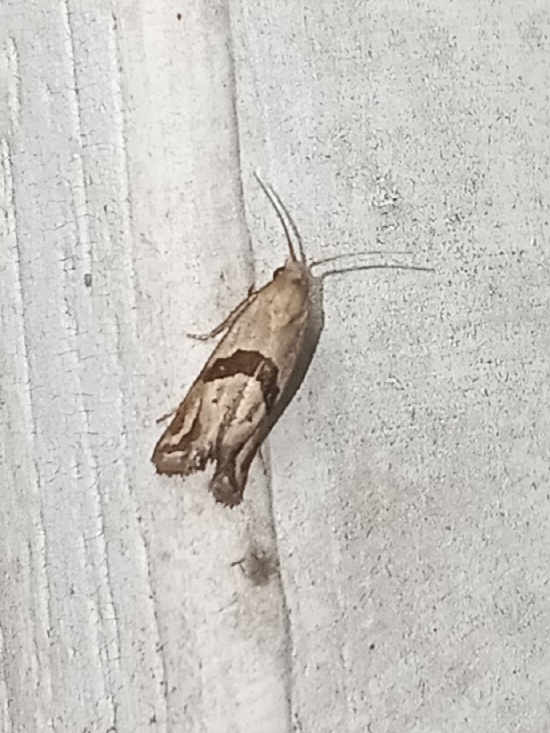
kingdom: Animalia
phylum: Arthropoda
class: Insecta
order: Lepidoptera
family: Tortricidae
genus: Eugnosta
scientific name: Eugnosta sartana
